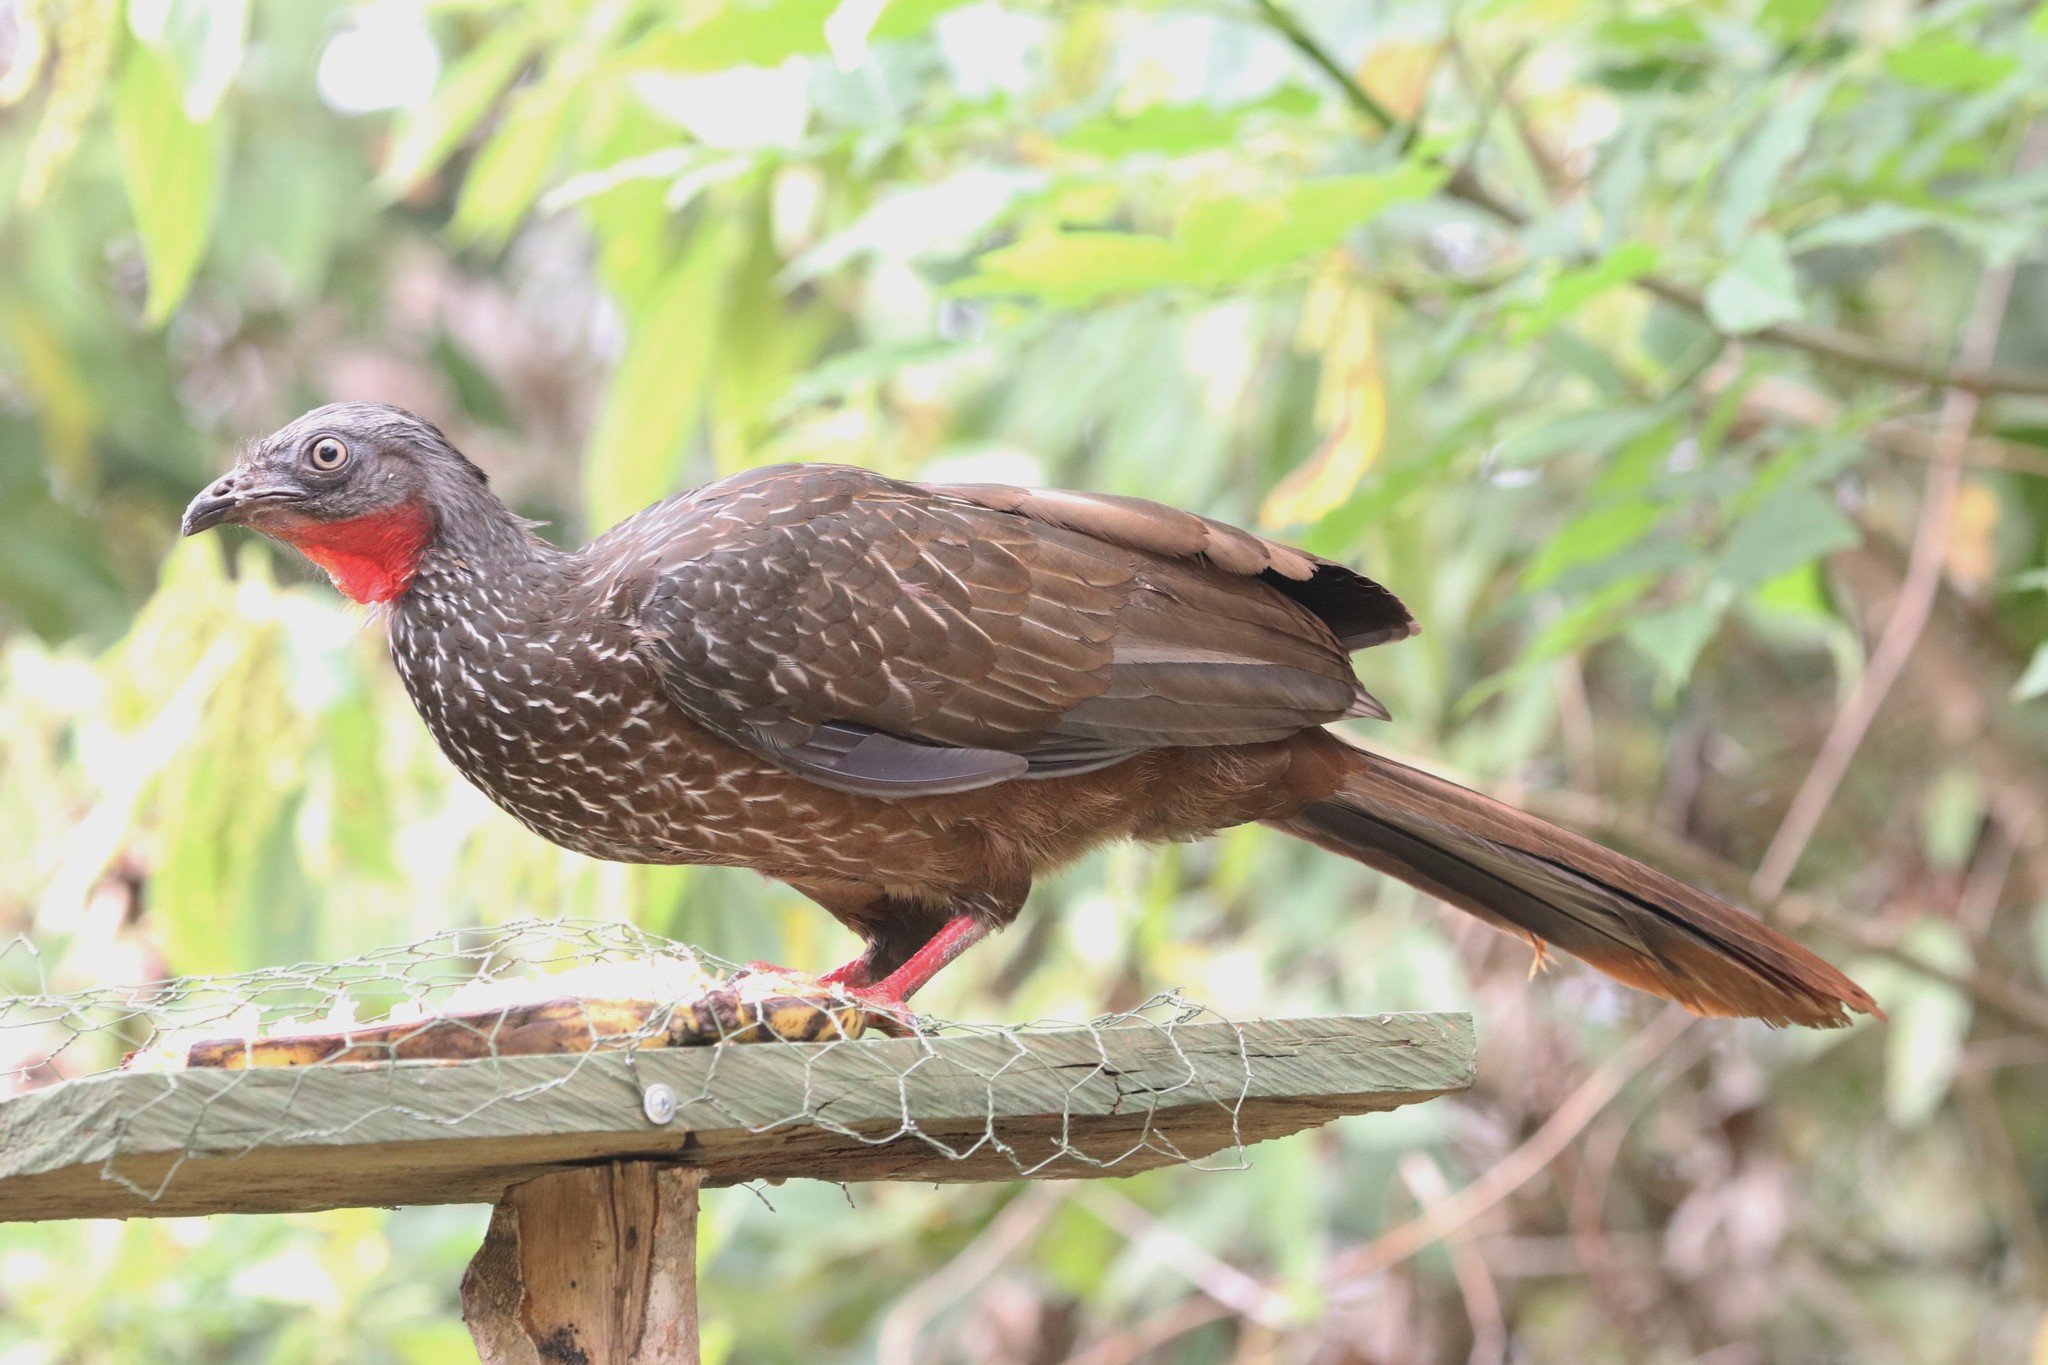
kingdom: Animalia
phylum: Chordata
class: Aves
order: Galliformes
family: Cracidae
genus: Penelope
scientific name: Penelope argyrotis
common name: Band-tailed guan
